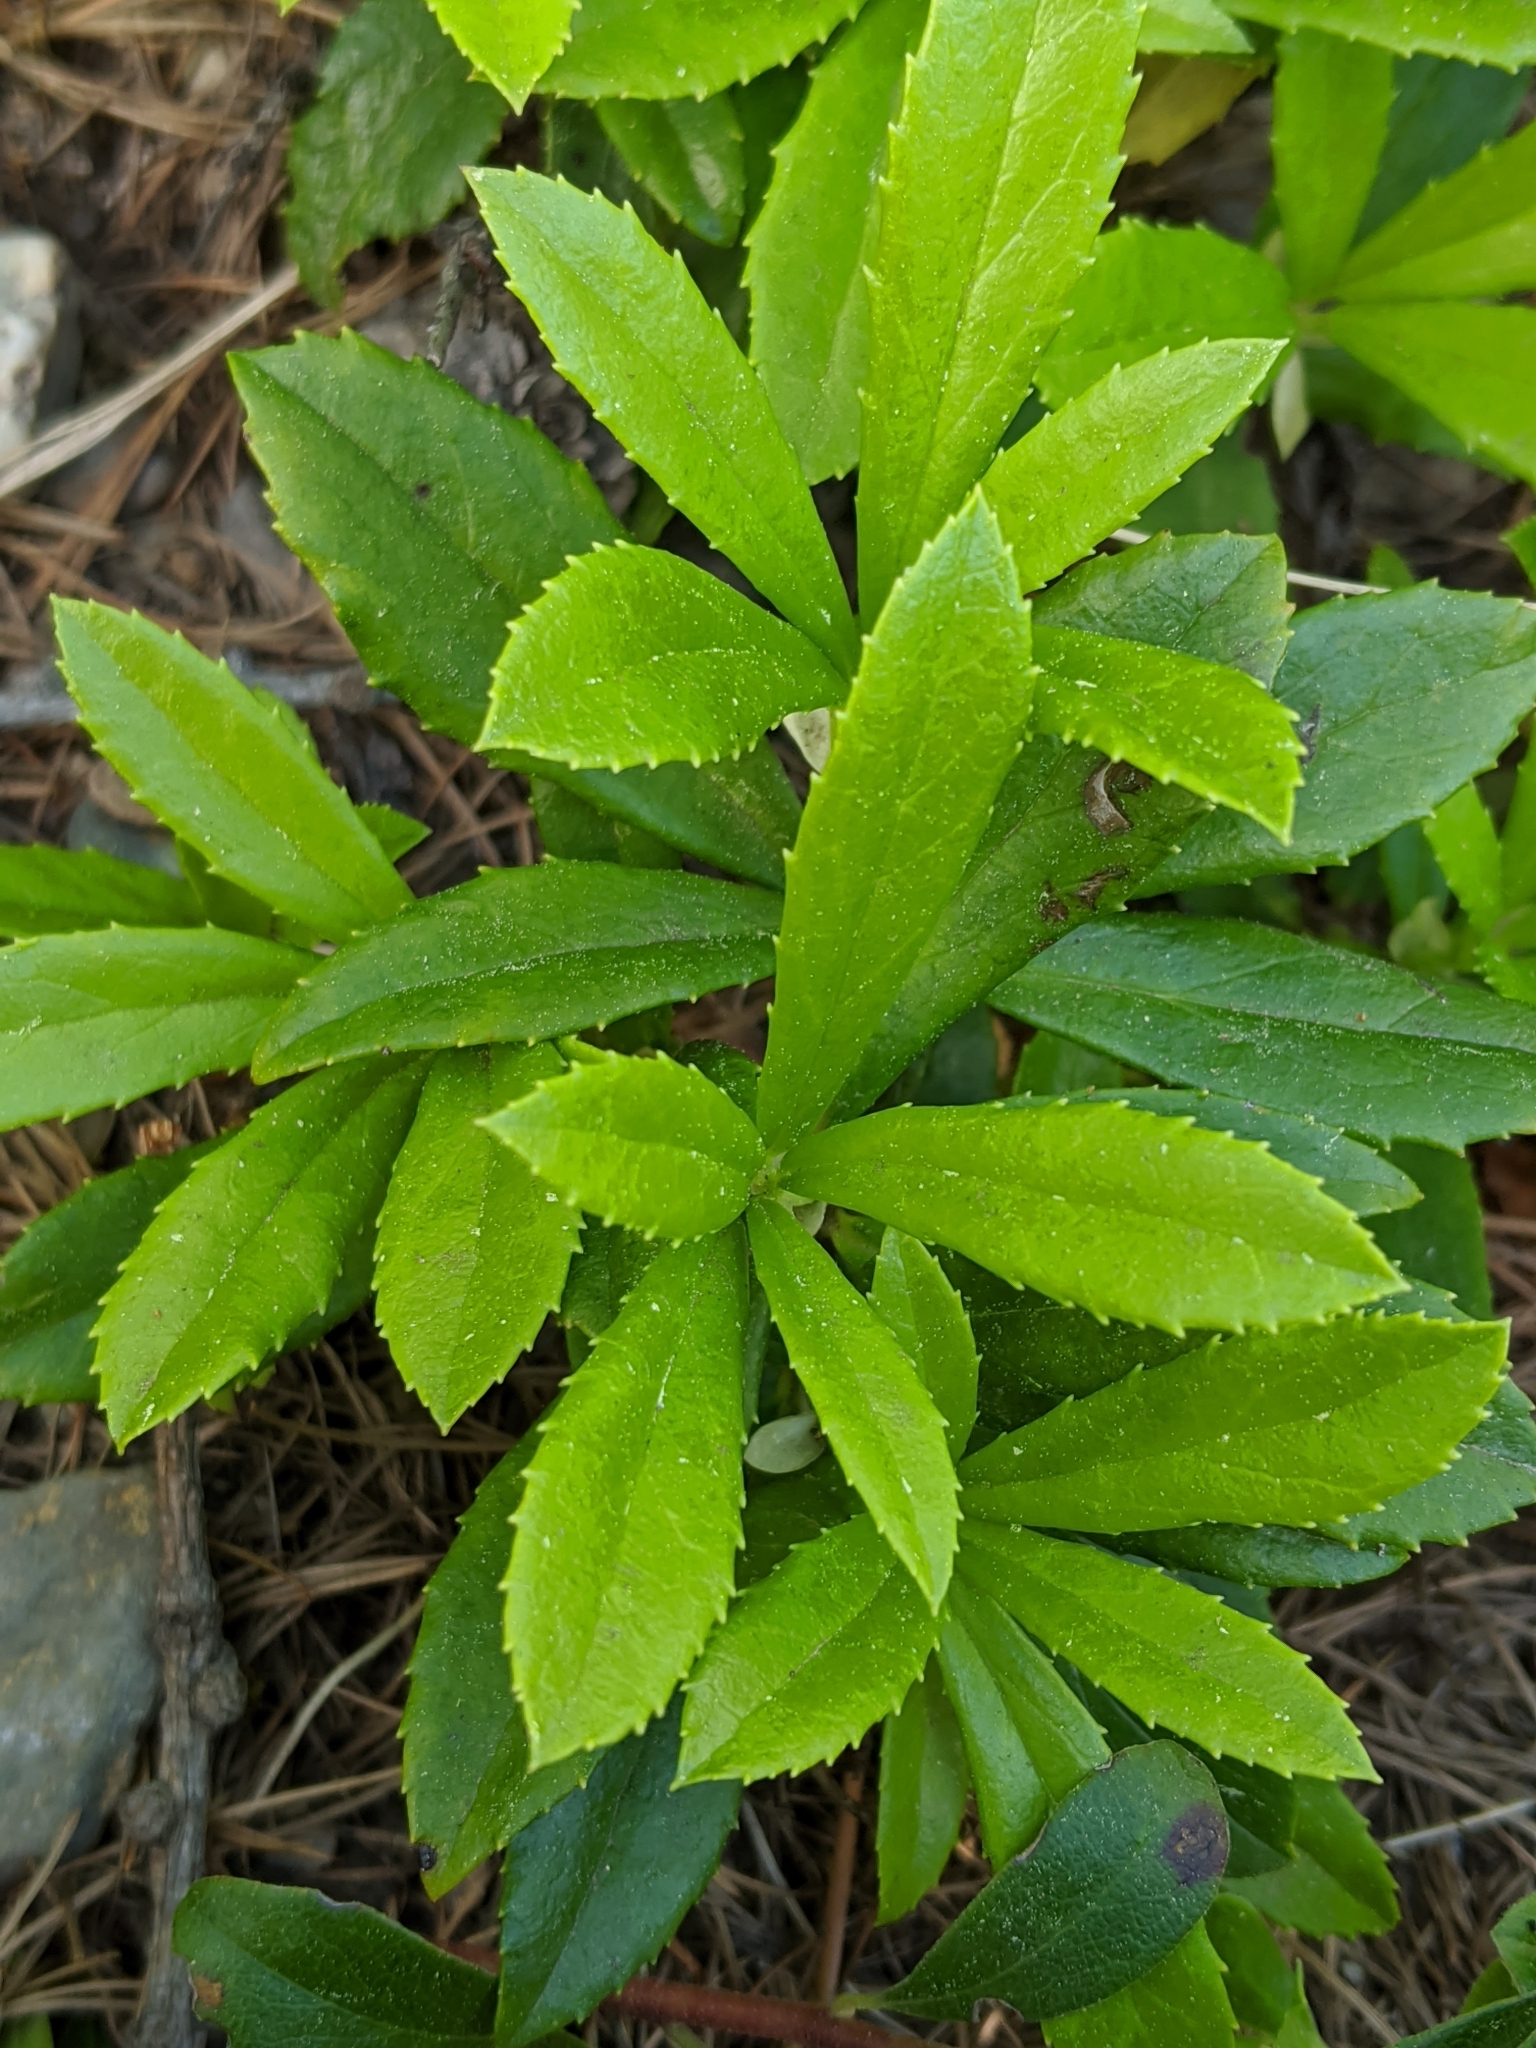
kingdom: Plantae
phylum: Tracheophyta
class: Magnoliopsida
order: Ericales
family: Ericaceae
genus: Chimaphila
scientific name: Chimaphila umbellata
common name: Pipsissewa
